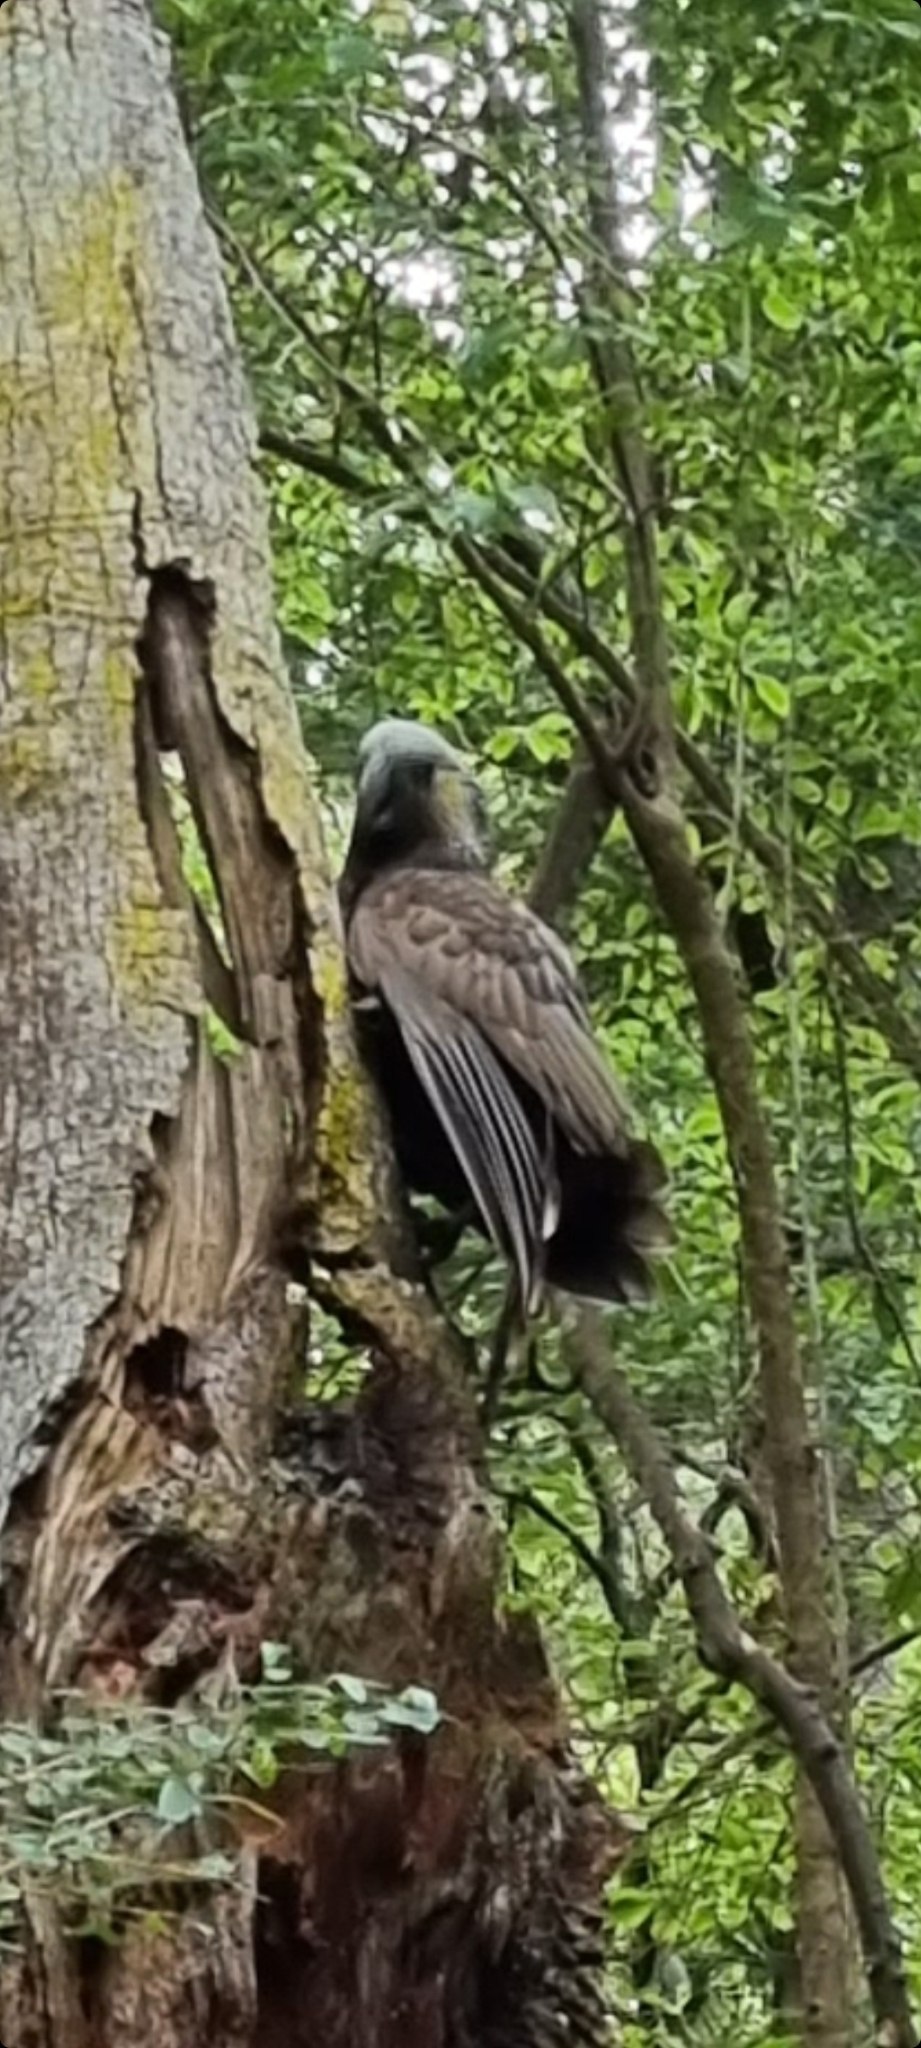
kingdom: Animalia
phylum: Chordata
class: Aves
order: Psittaciformes
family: Psittacidae
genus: Nestor
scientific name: Nestor meridionalis
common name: New zealand kaka
